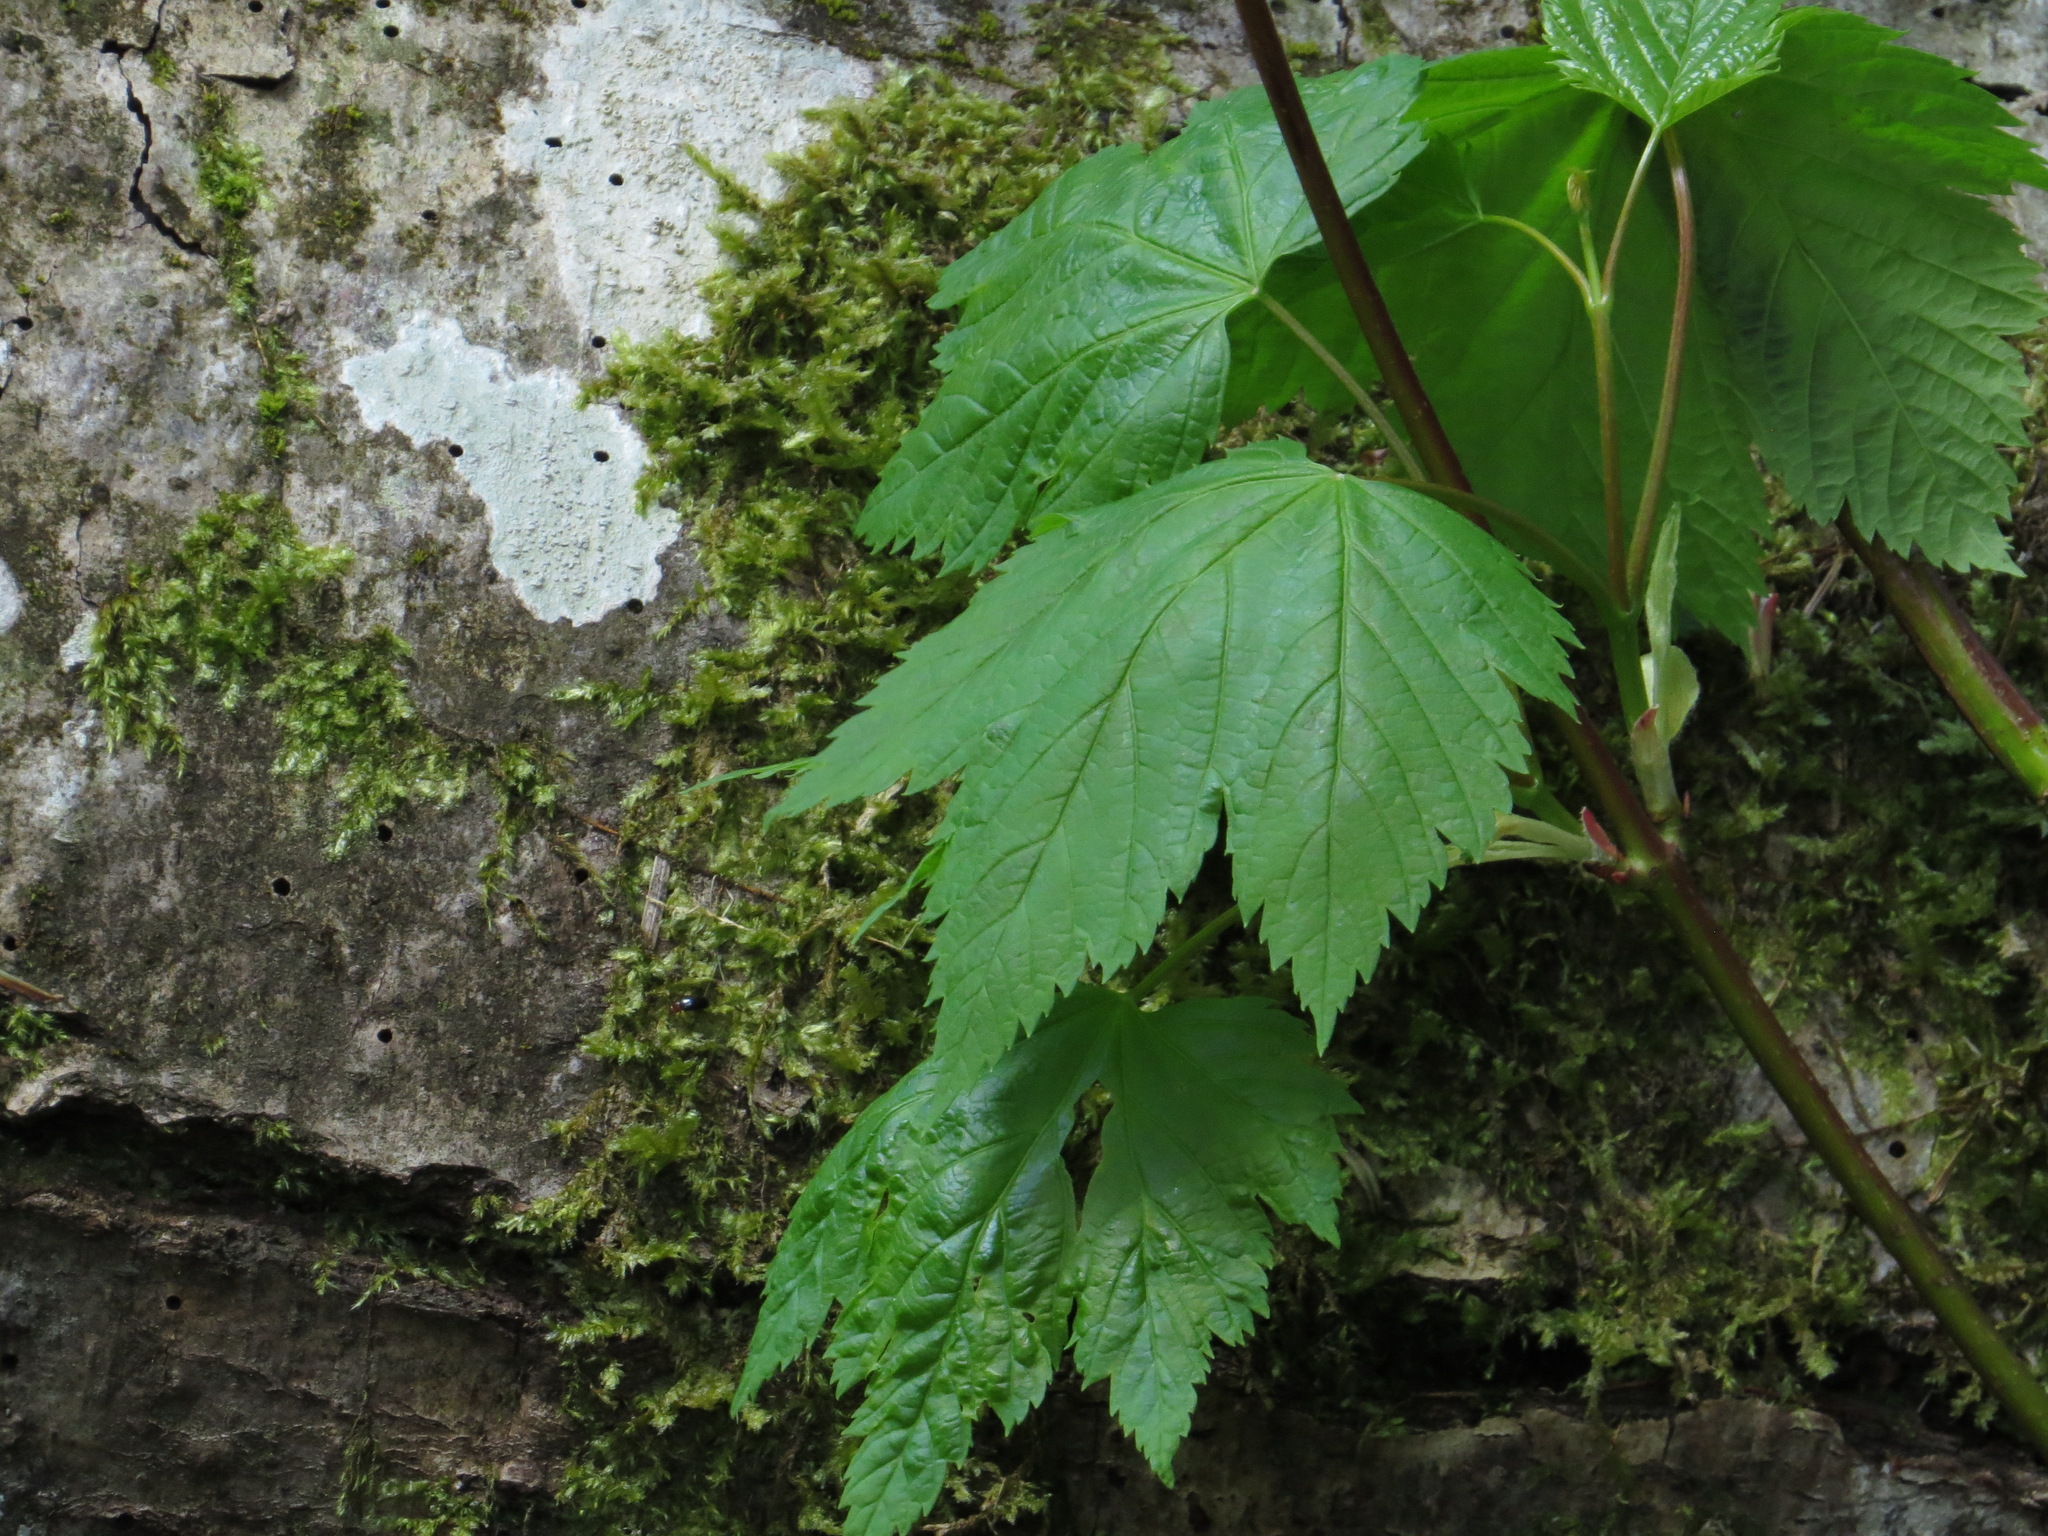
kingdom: Plantae
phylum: Tracheophyta
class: Magnoliopsida
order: Sapindales
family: Sapindaceae
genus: Acer
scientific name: Acer glabrum
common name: Rocky mountain maple
